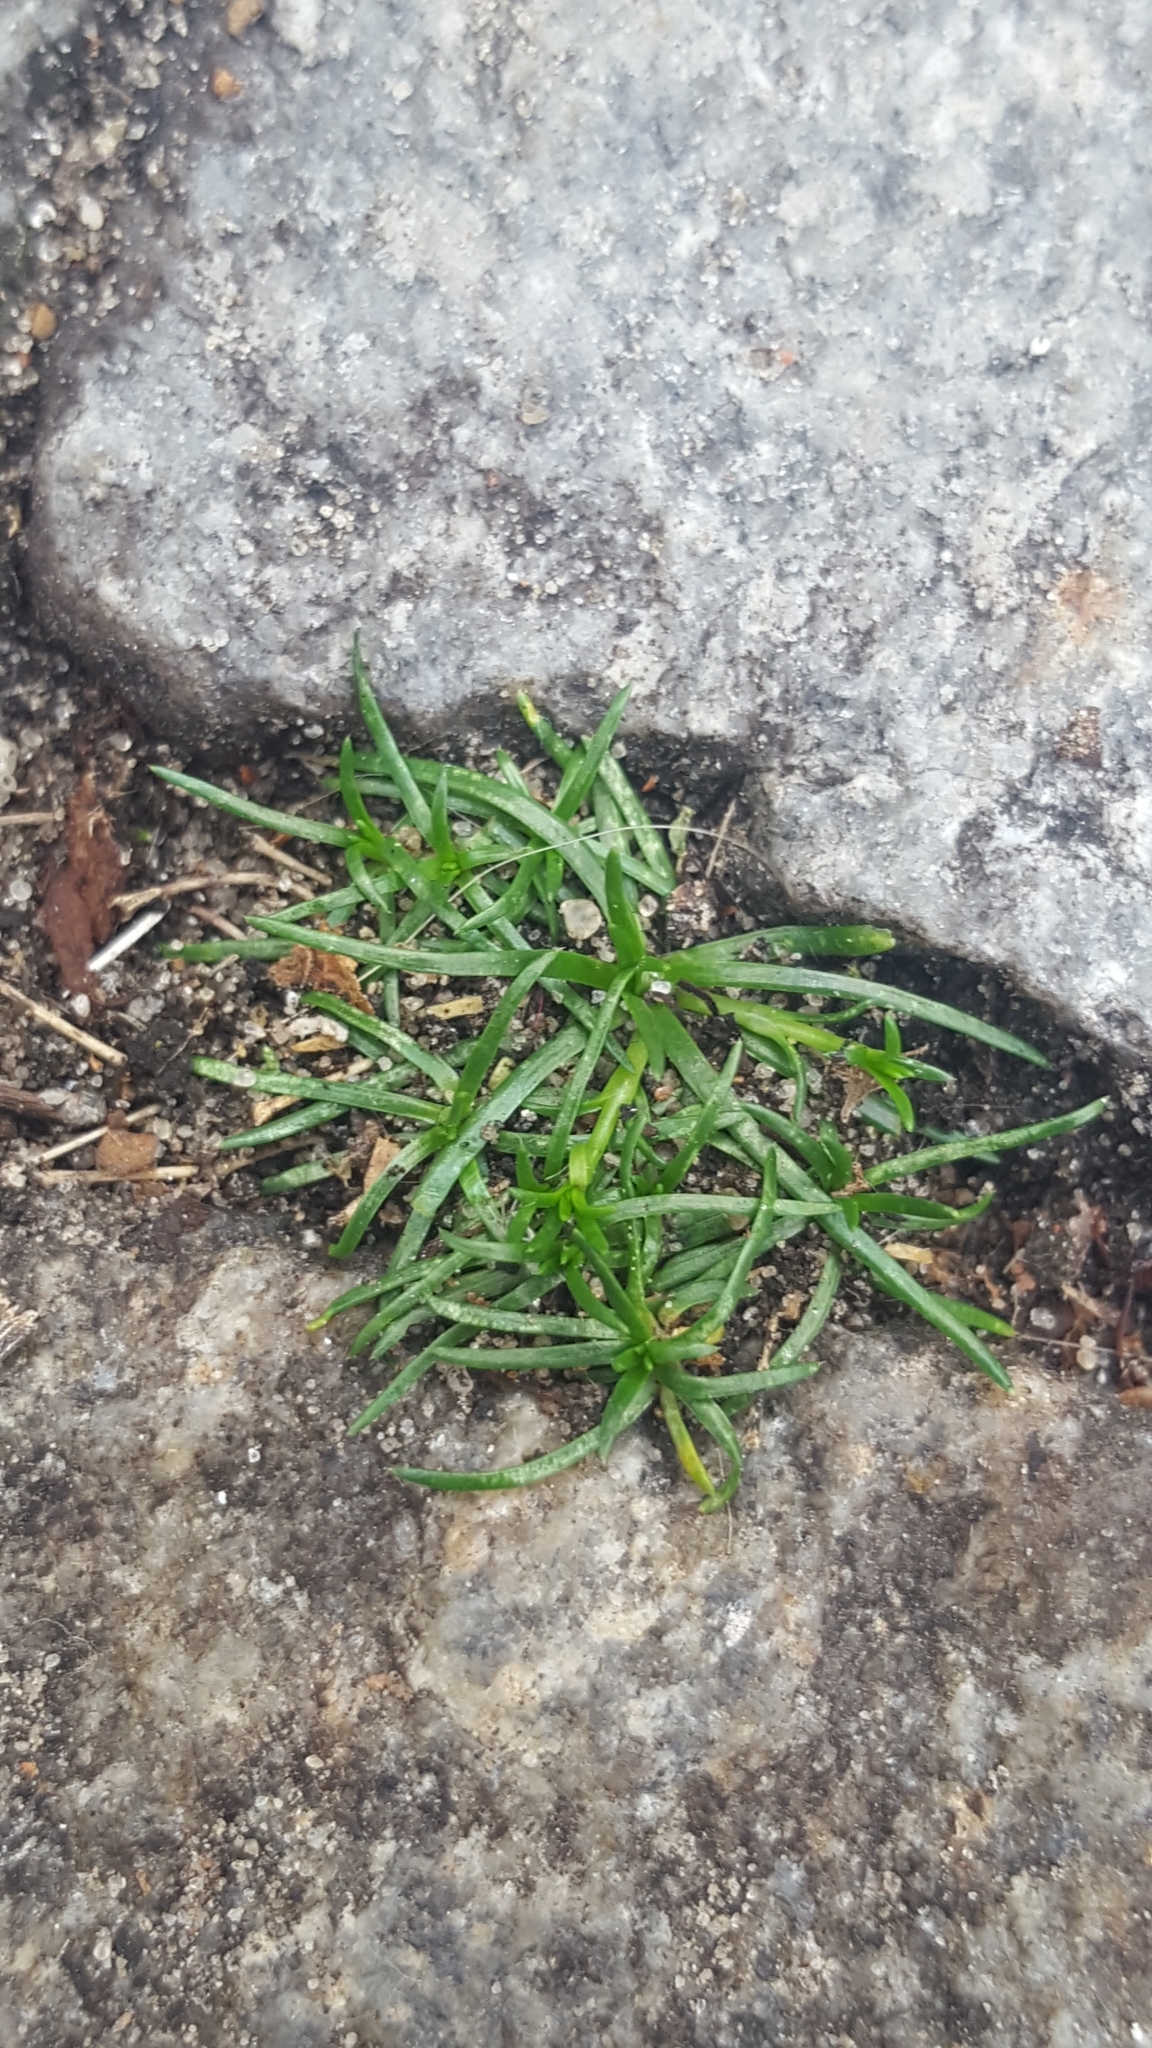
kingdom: Plantae
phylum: Tracheophyta
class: Magnoliopsida
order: Caryophyllales
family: Caryophyllaceae
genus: Sagina
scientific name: Sagina procumbens
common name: Procumbent pearlwort
